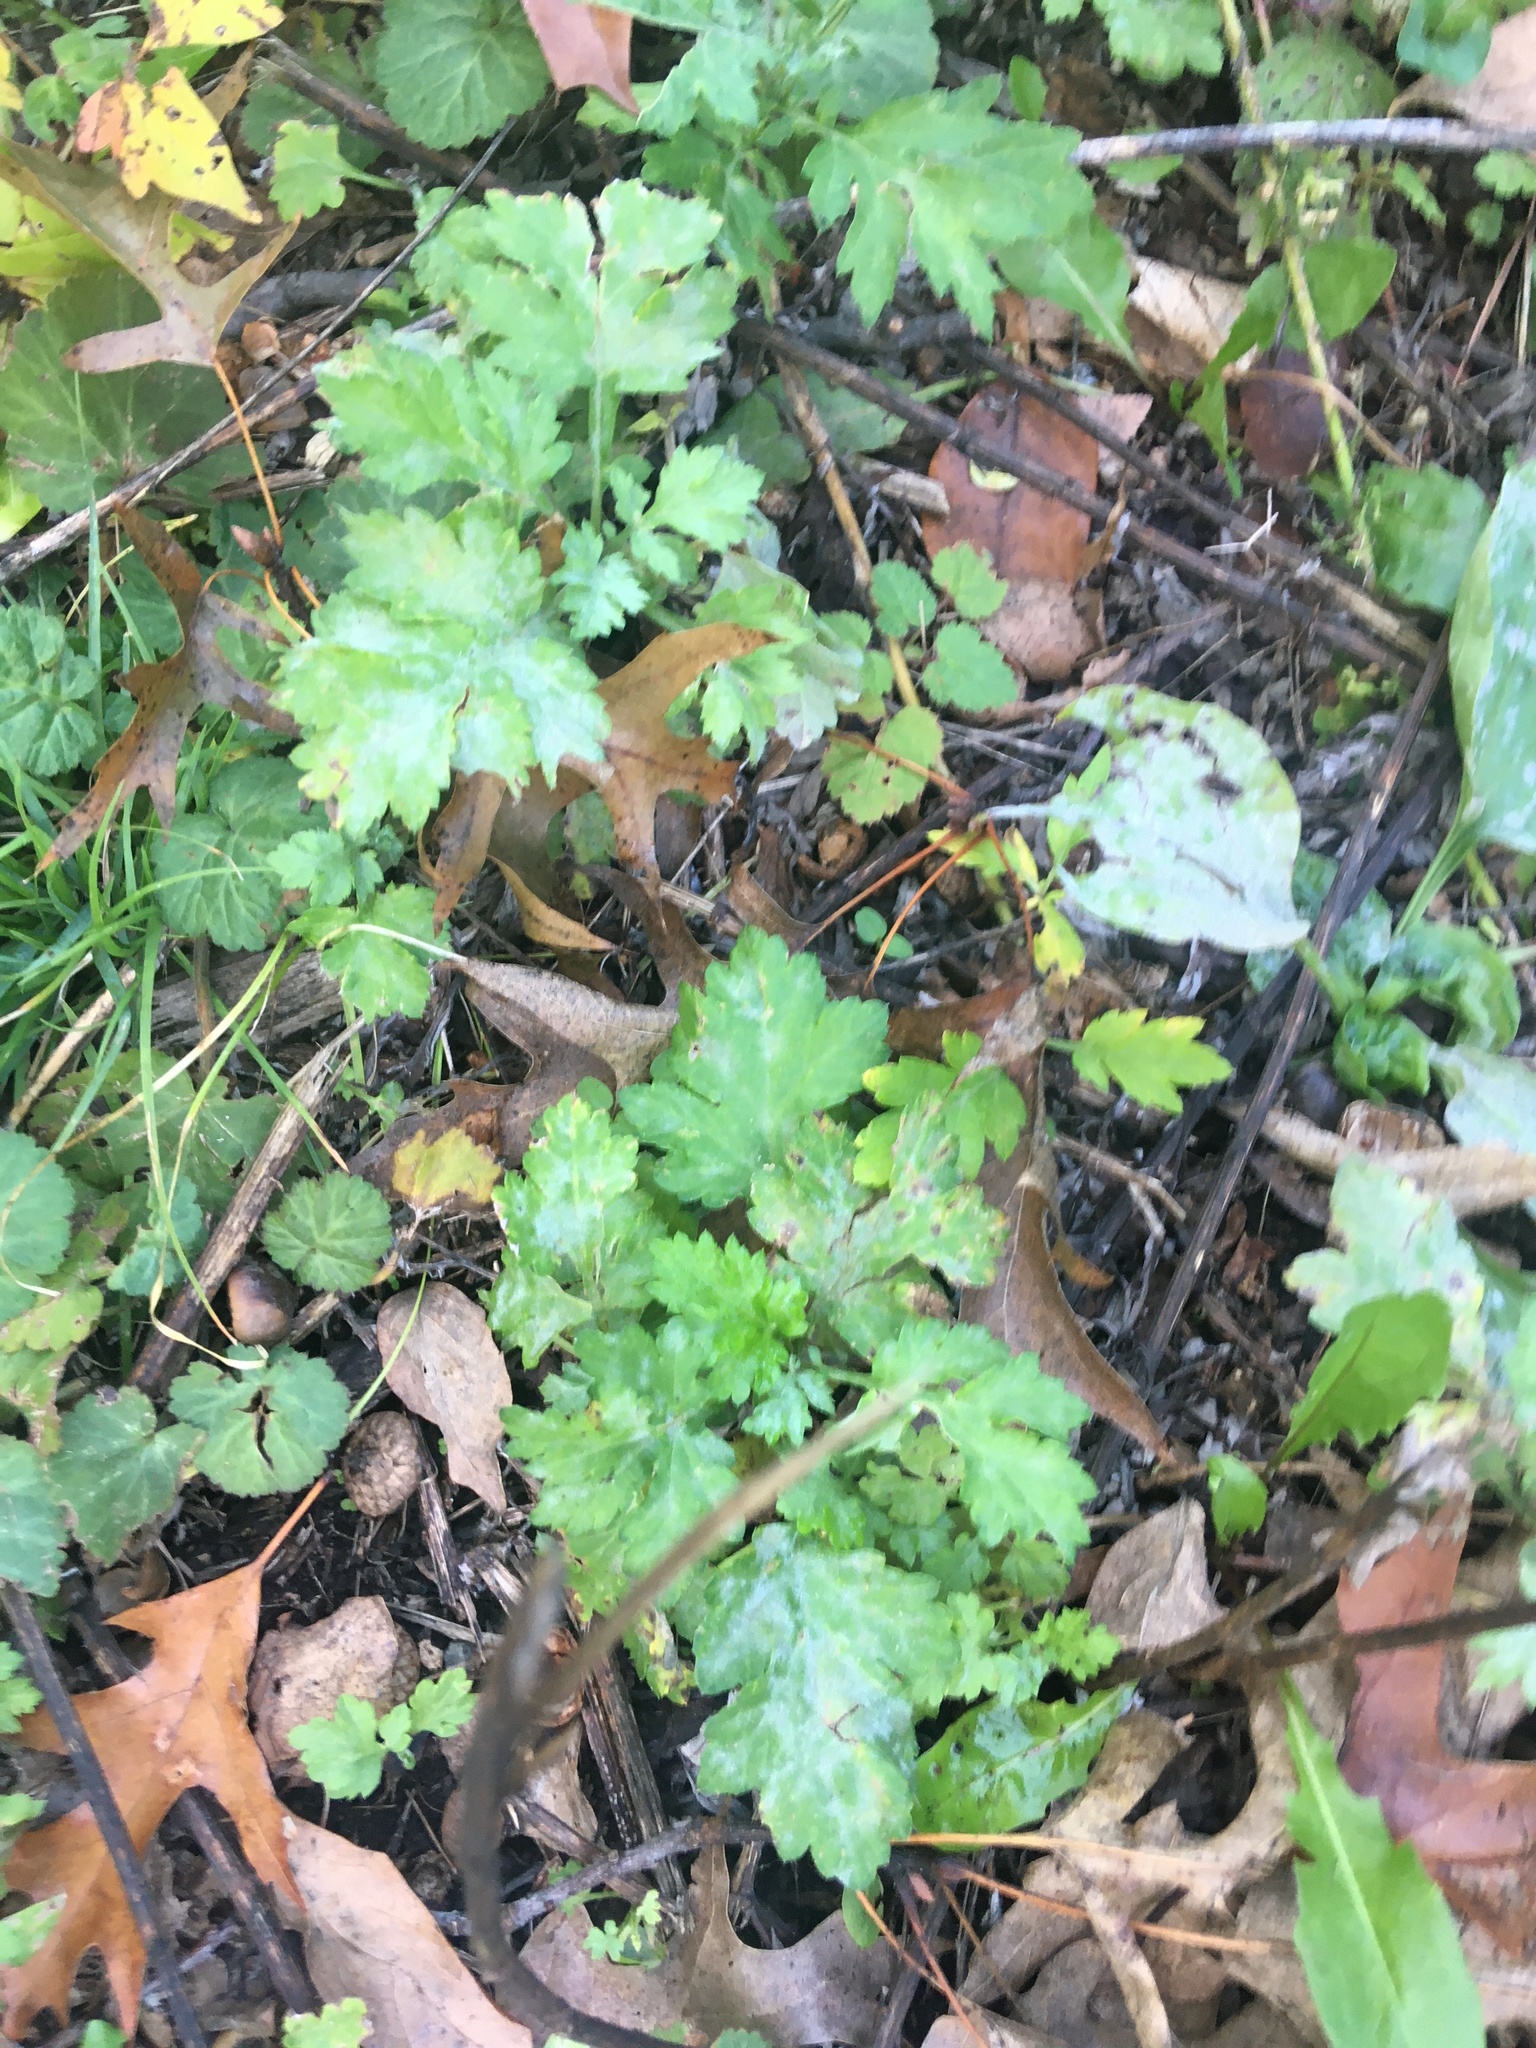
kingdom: Plantae
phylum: Tracheophyta
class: Magnoliopsida
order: Asterales
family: Asteraceae
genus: Artemisia
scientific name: Artemisia vulgaris
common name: Mugwort
